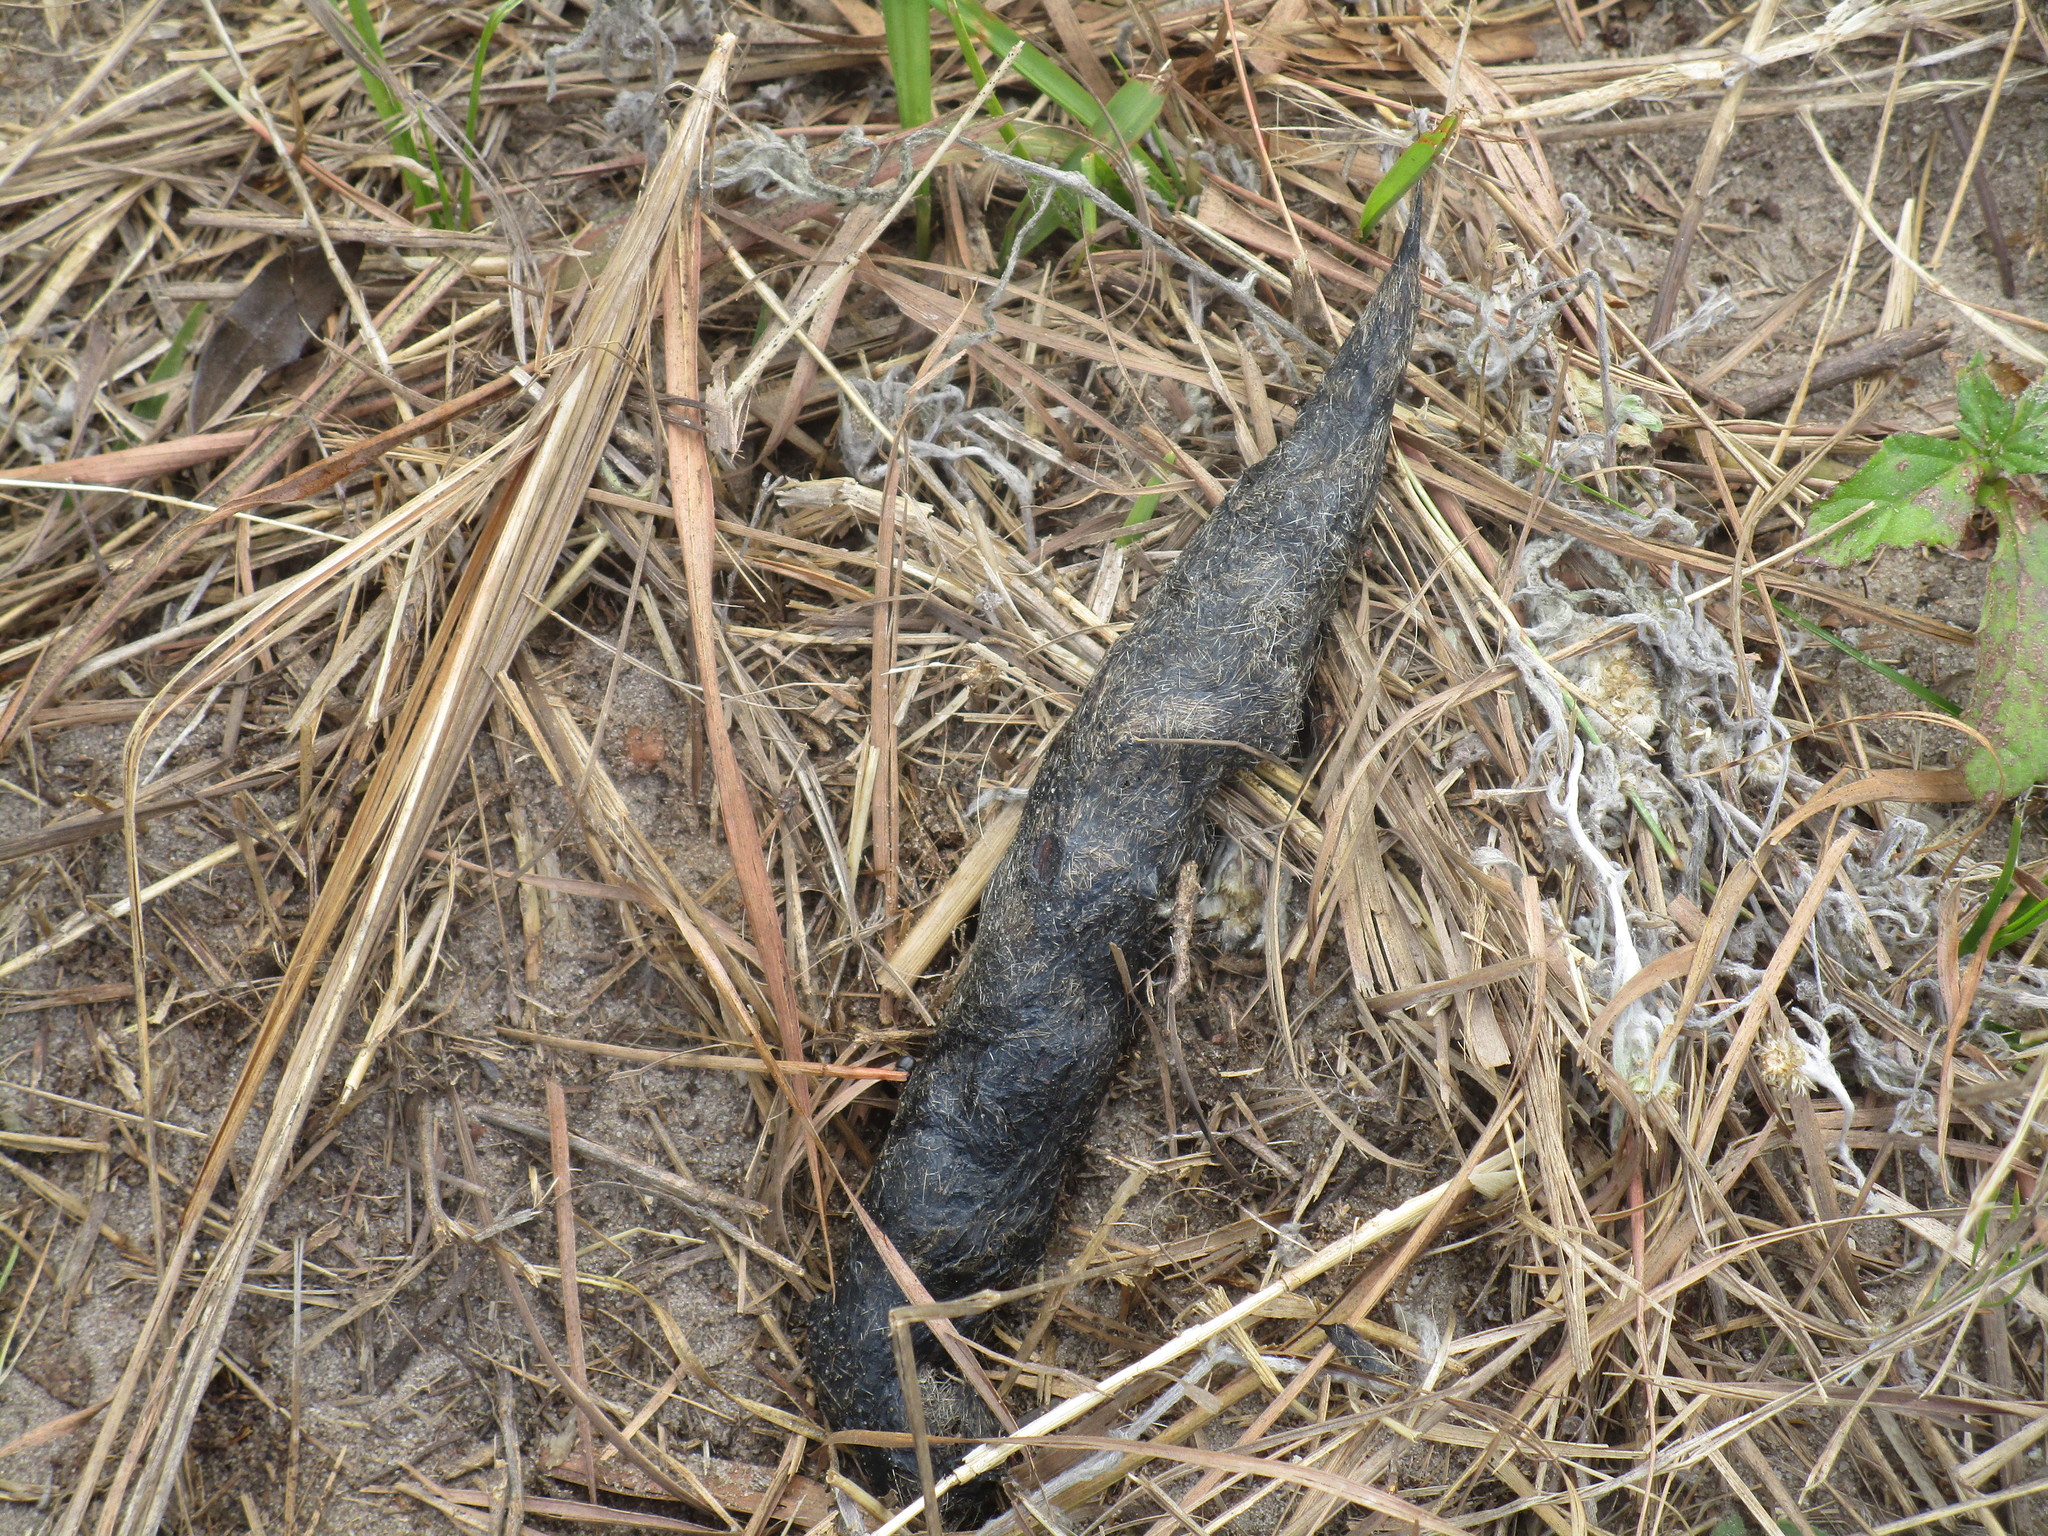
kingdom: Animalia
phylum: Chordata
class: Mammalia
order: Carnivora
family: Canidae
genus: Canis
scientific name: Canis latrans
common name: Coyote
